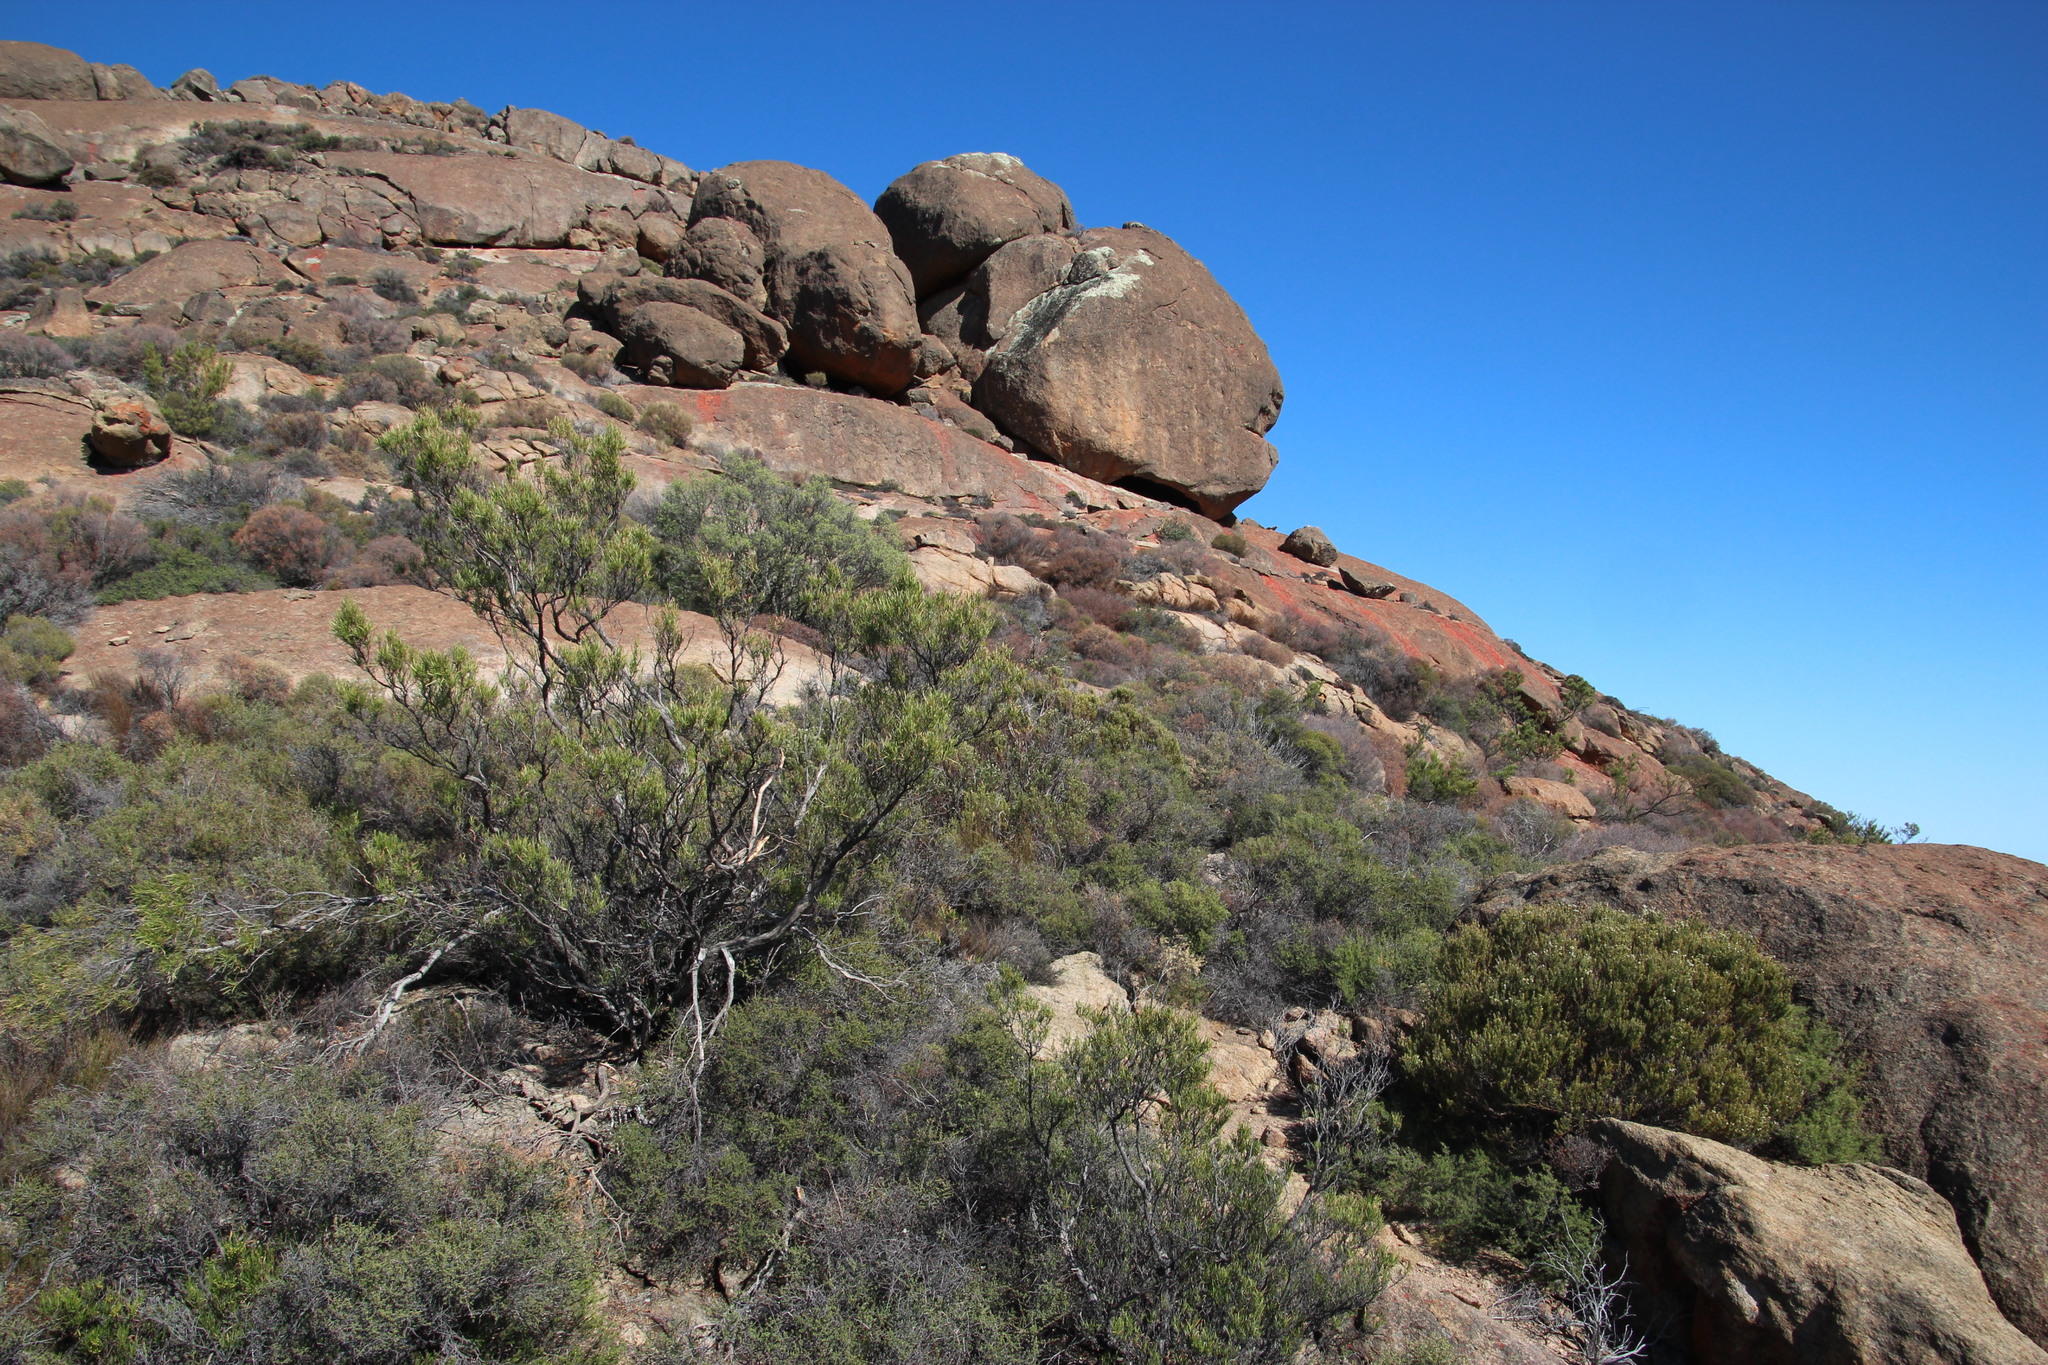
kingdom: Plantae
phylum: Tracheophyta
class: Magnoliopsida
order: Sapindales
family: Sapindaceae
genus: Dodonaea
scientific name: Dodonaea viscosa
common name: Hopbush
